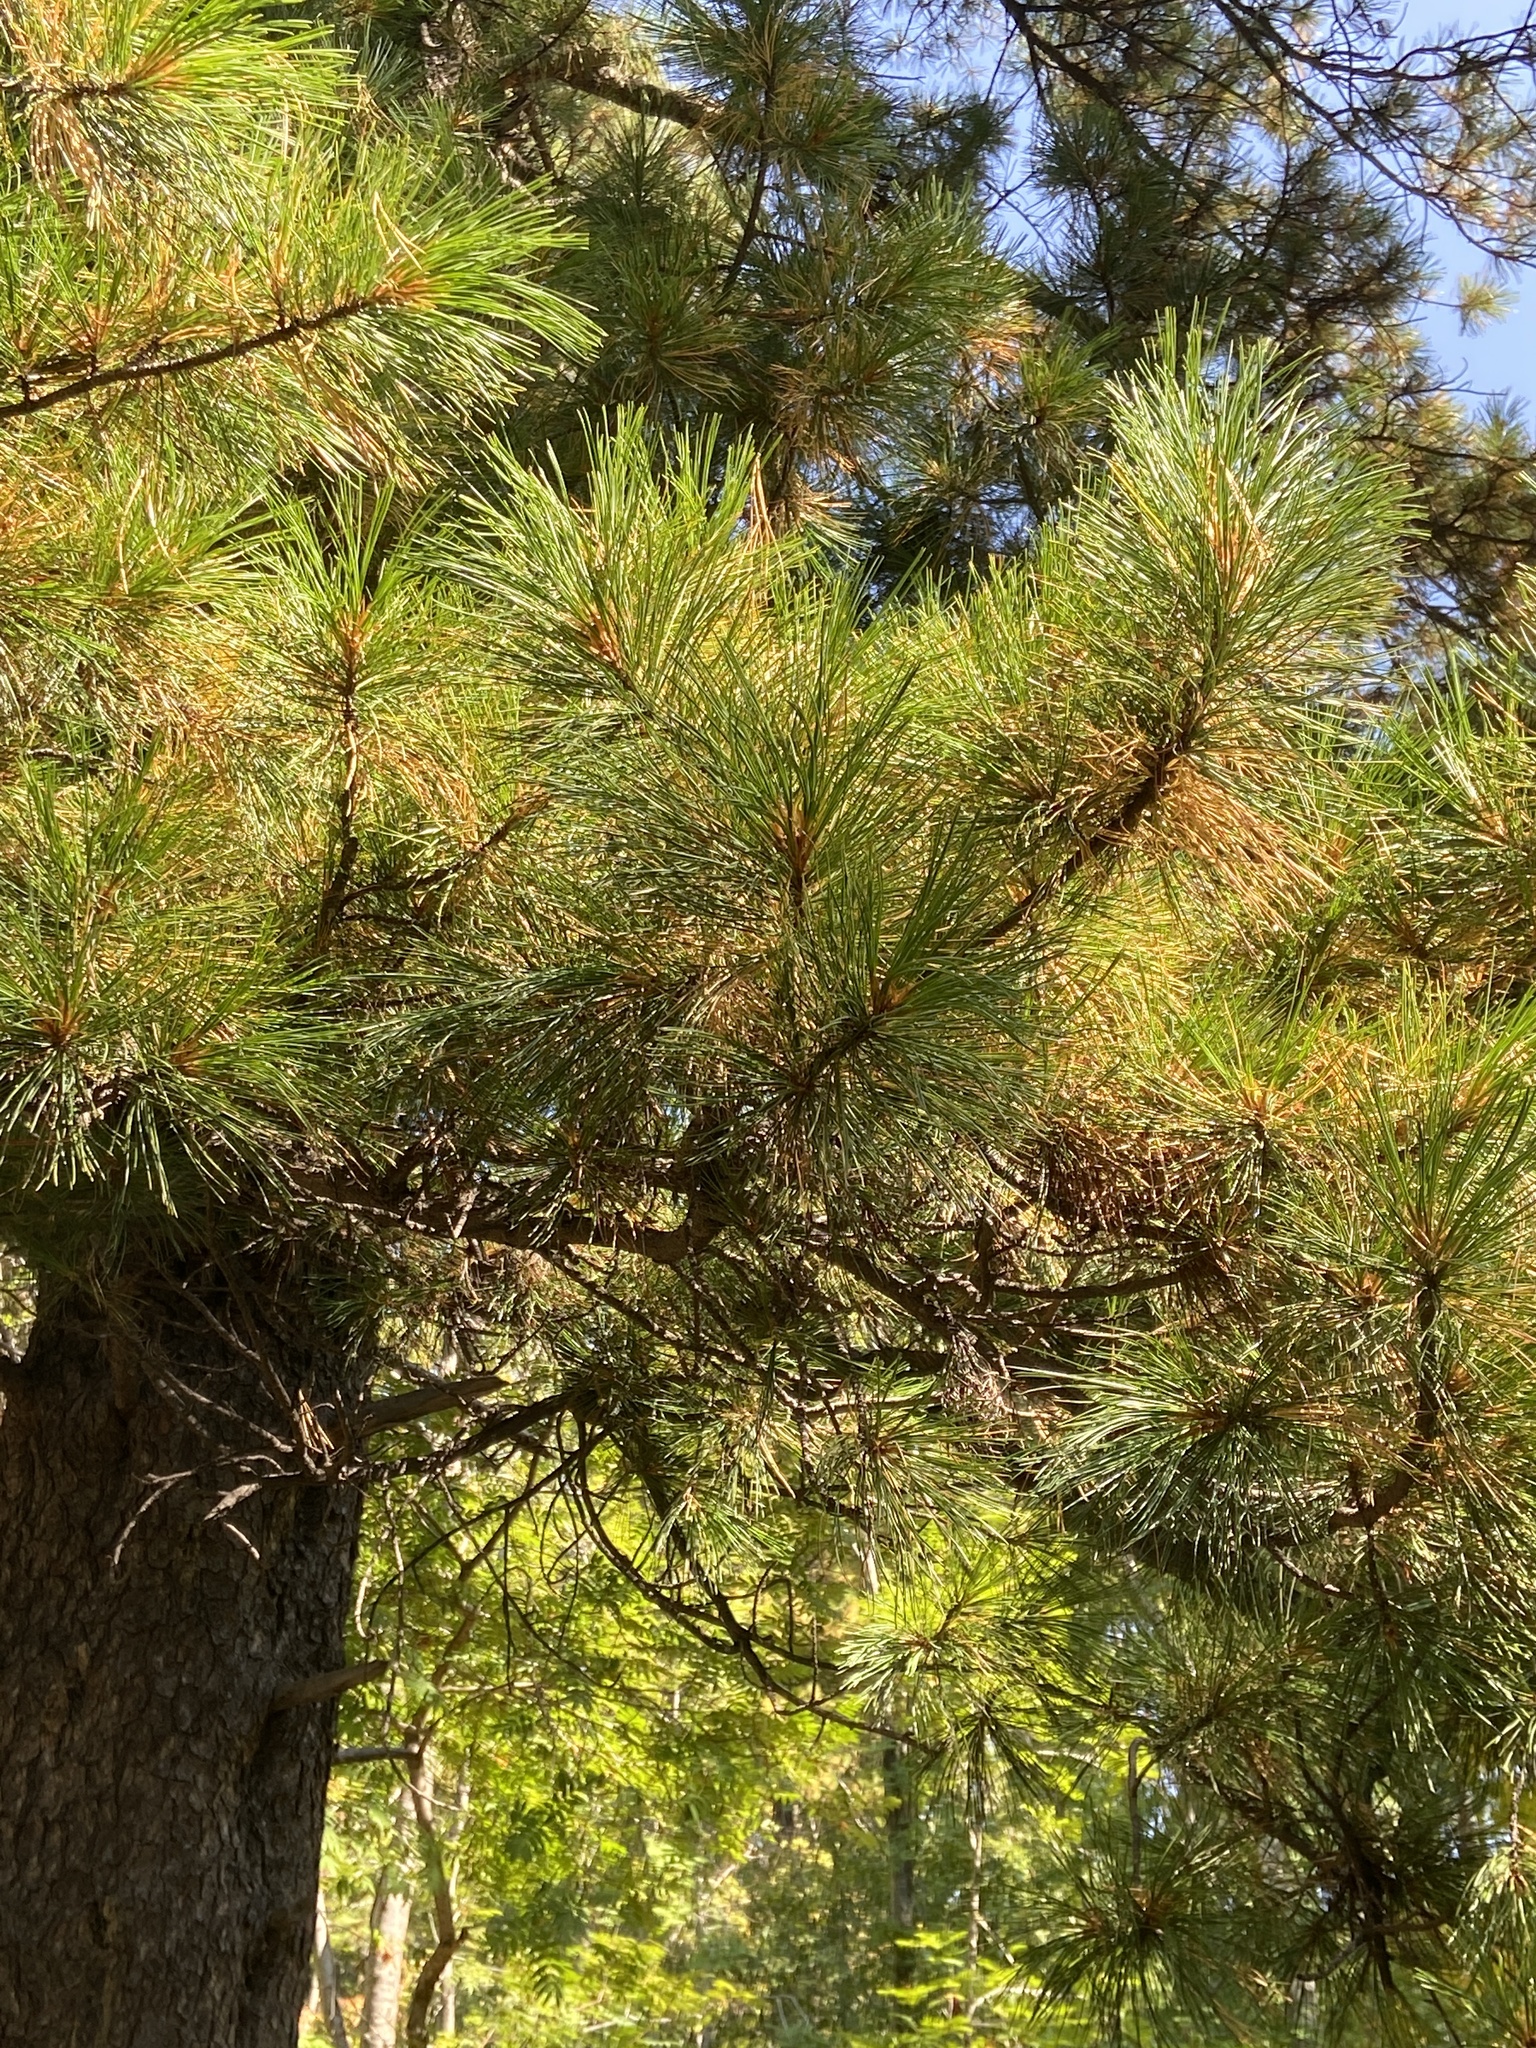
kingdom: Plantae
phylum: Tracheophyta
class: Pinopsida
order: Pinales
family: Pinaceae
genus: Pinus
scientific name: Pinus sibirica
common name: Siberian pine
